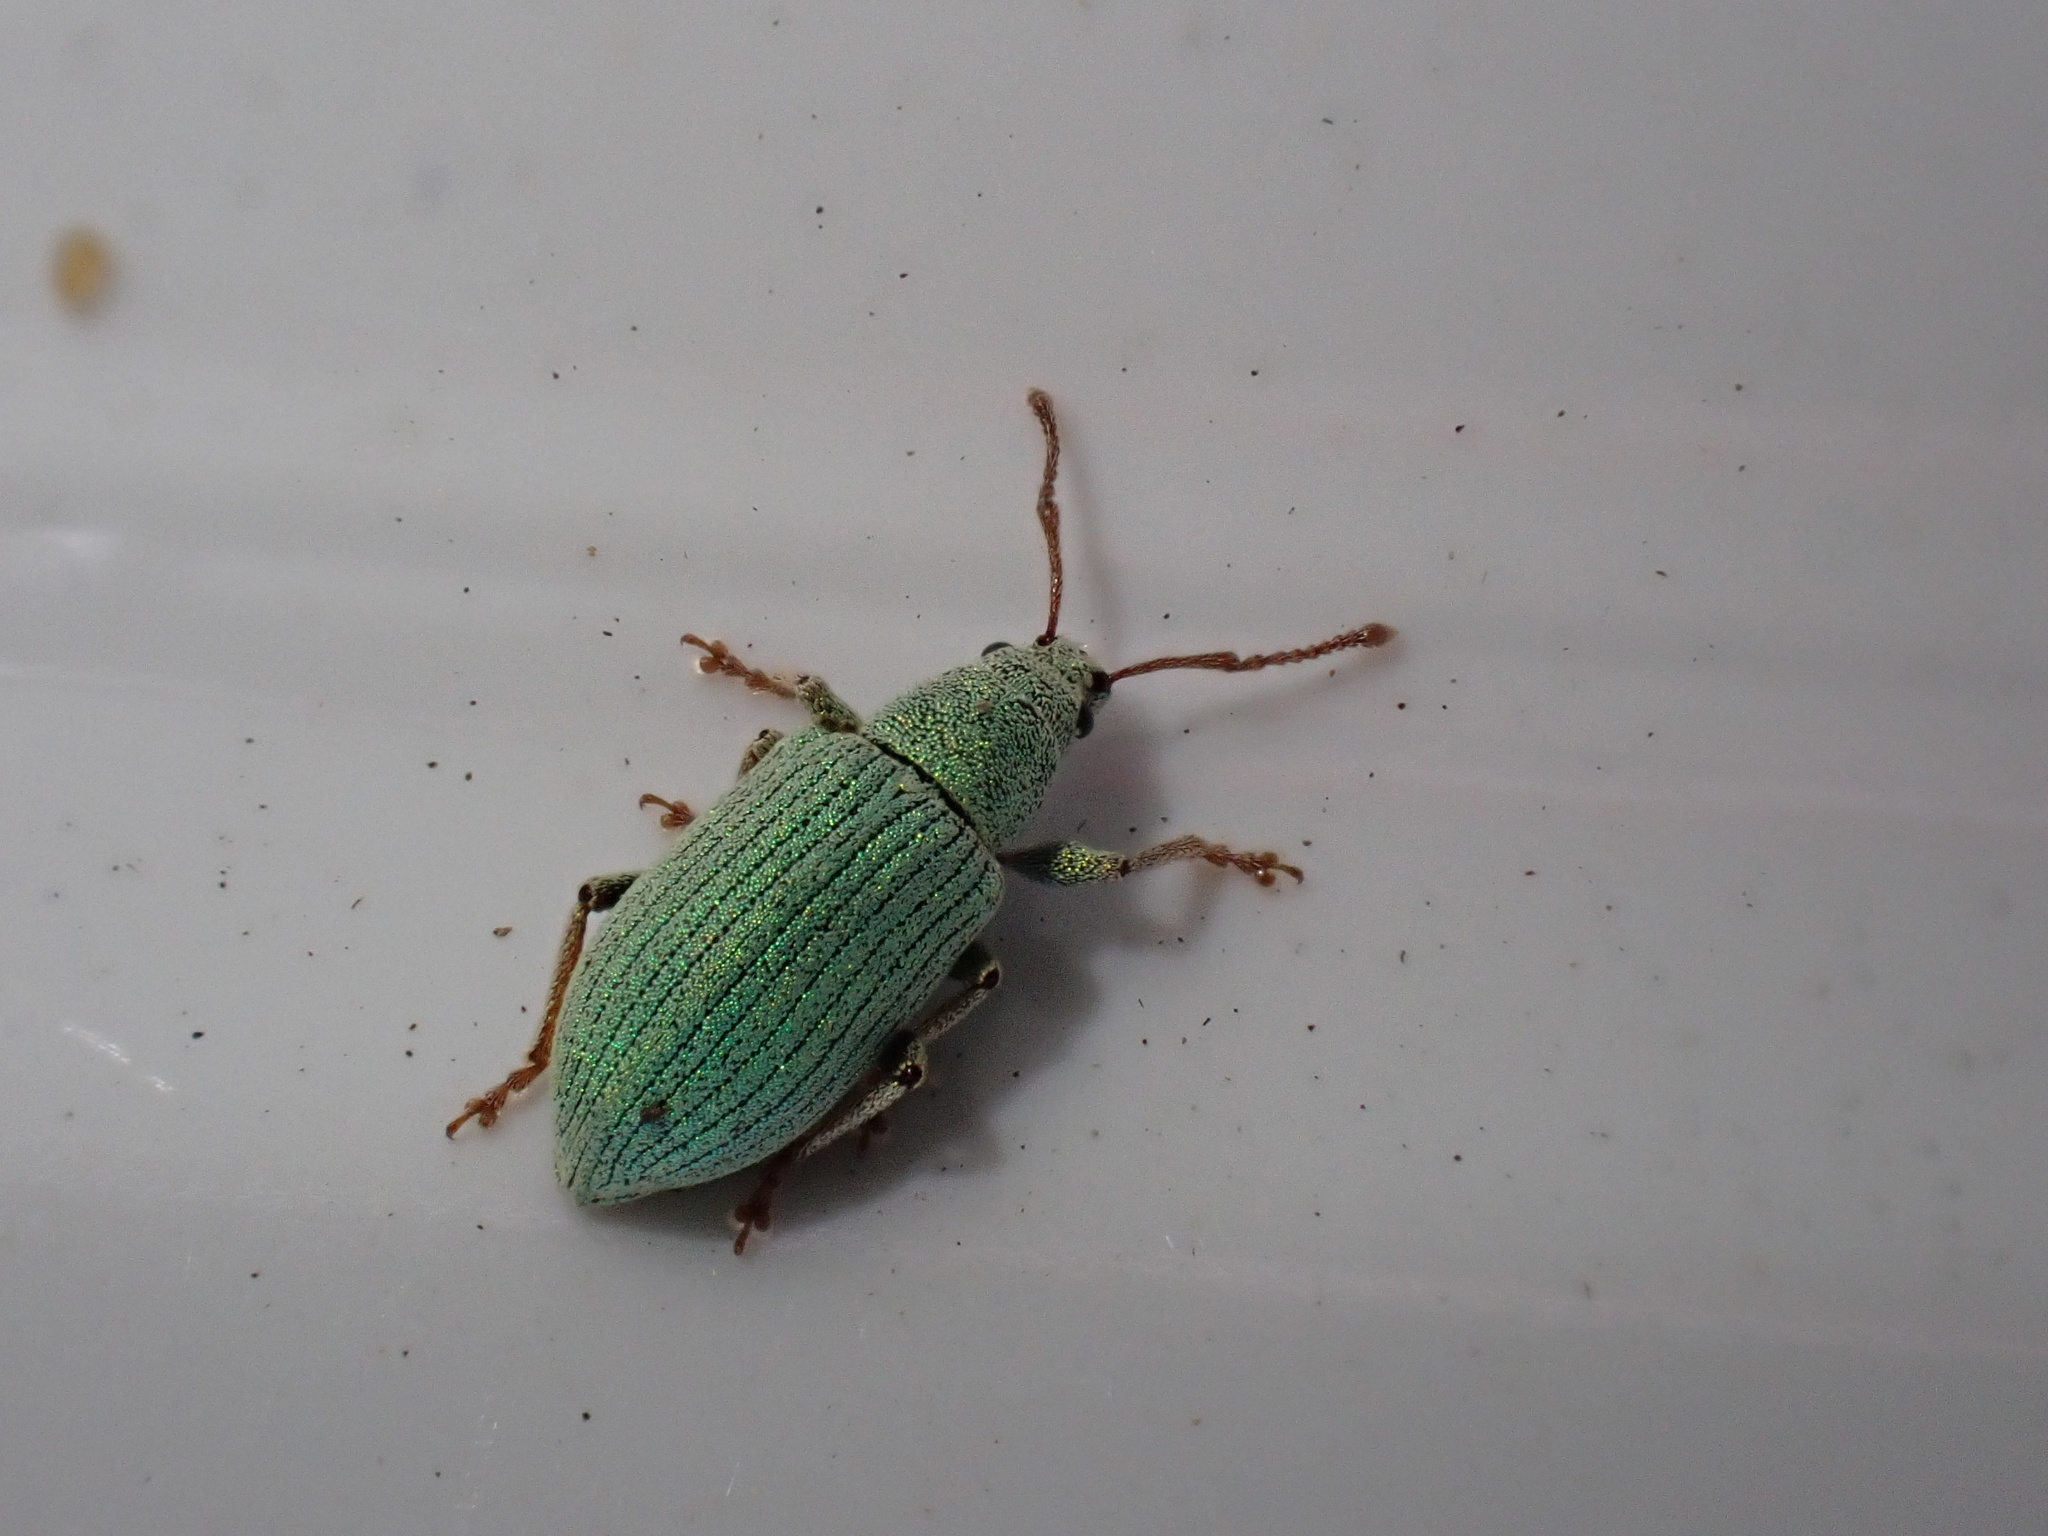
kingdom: Animalia
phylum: Arthropoda
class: Insecta
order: Coleoptera
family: Curculionidae
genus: Phyllobius
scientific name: Phyllobius virideaeris
